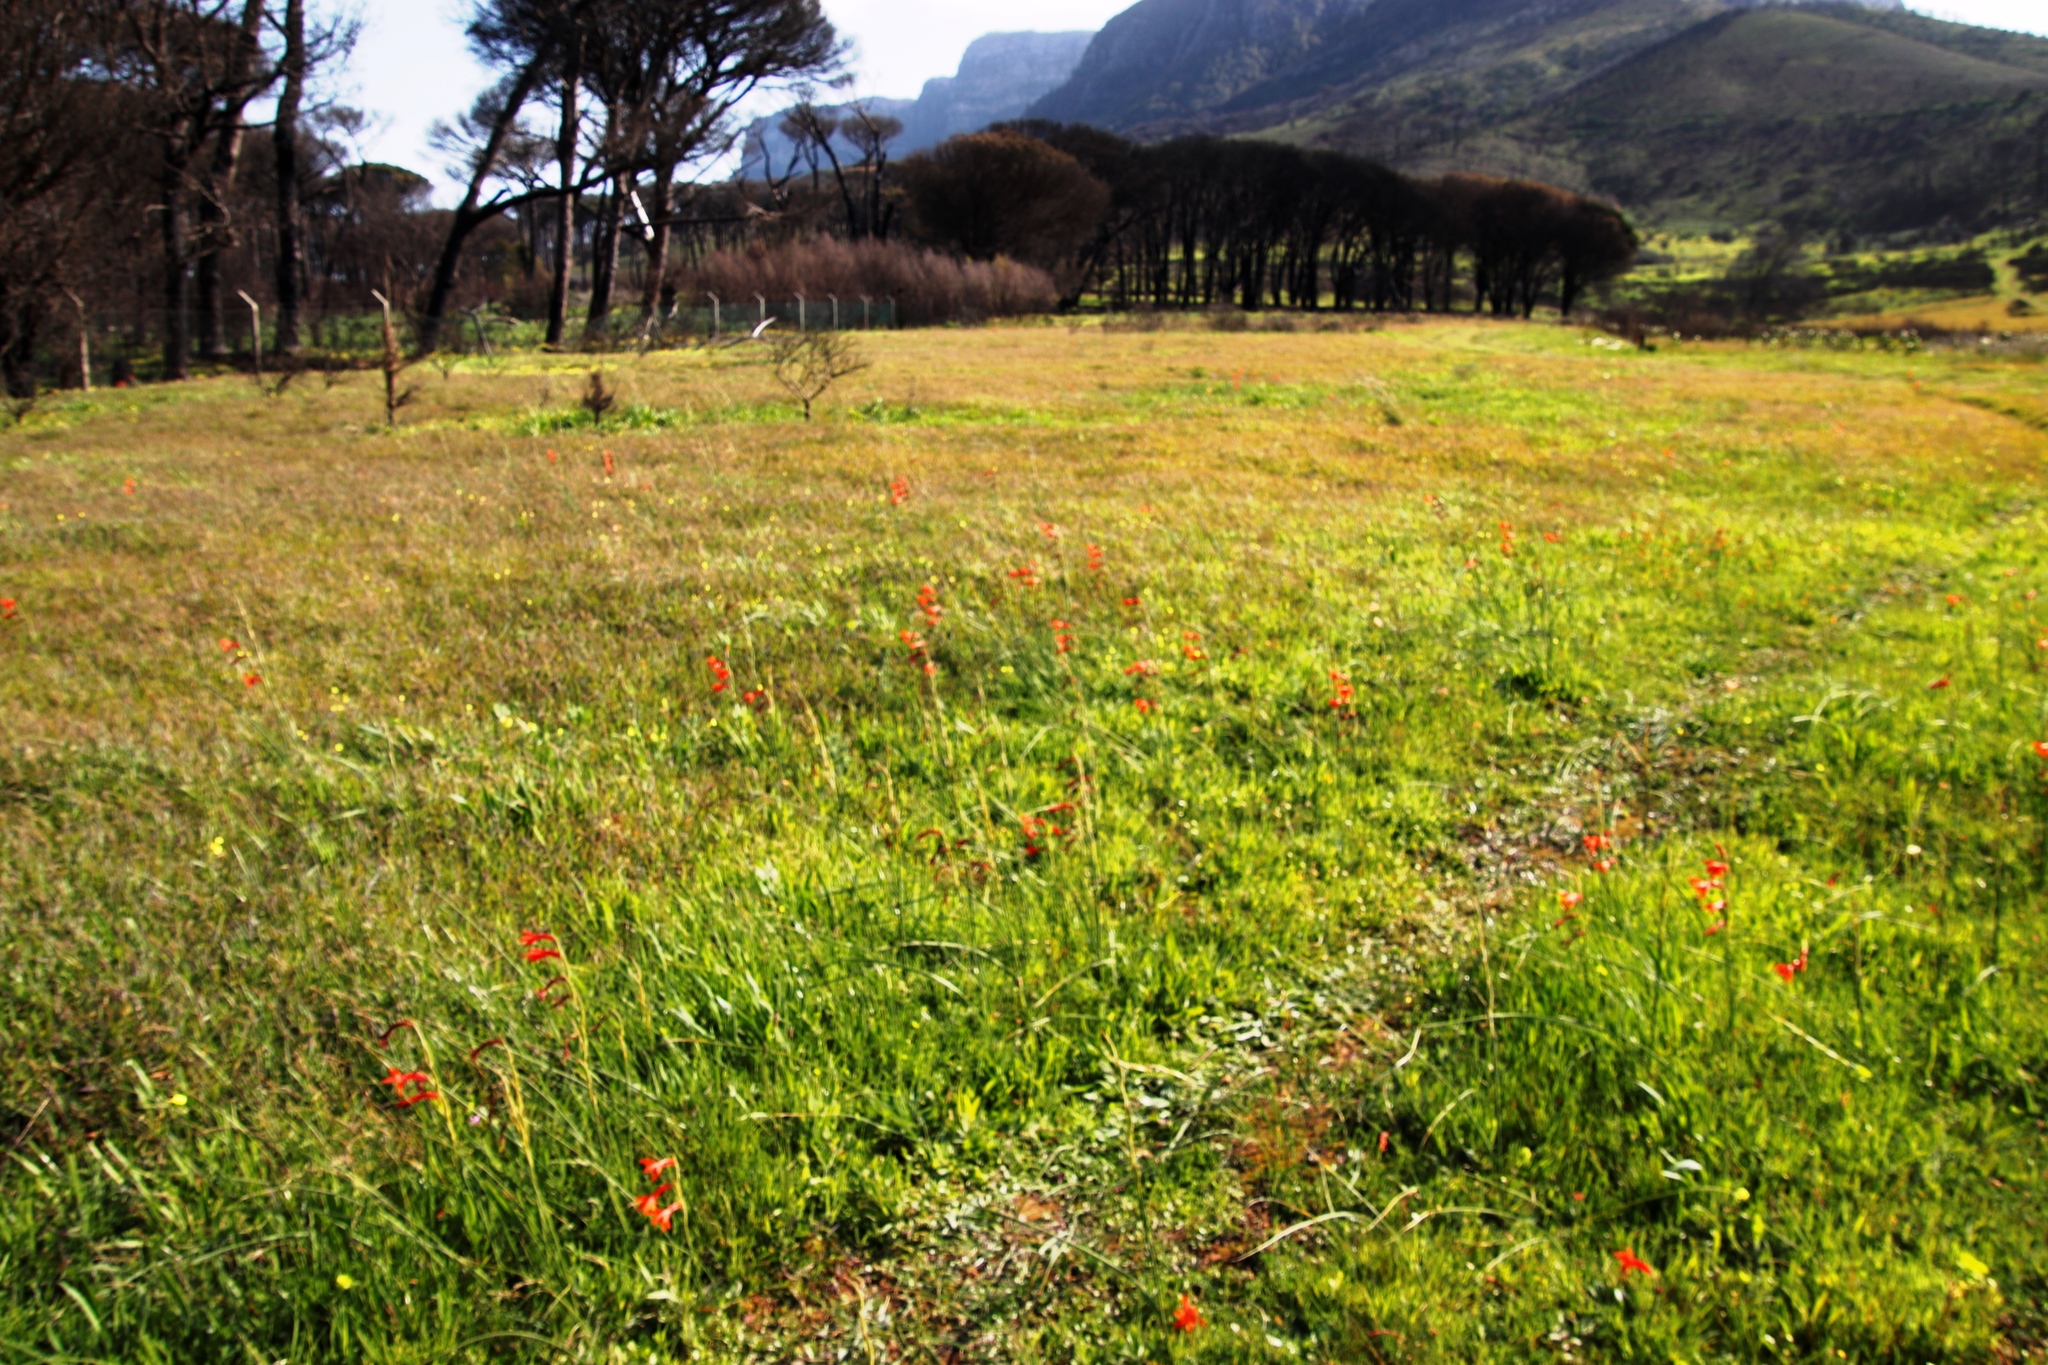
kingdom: Plantae
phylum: Tracheophyta
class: Liliopsida
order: Asparagales
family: Iridaceae
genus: Gladiolus
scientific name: Gladiolus watsonius
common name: Red afrikaner
